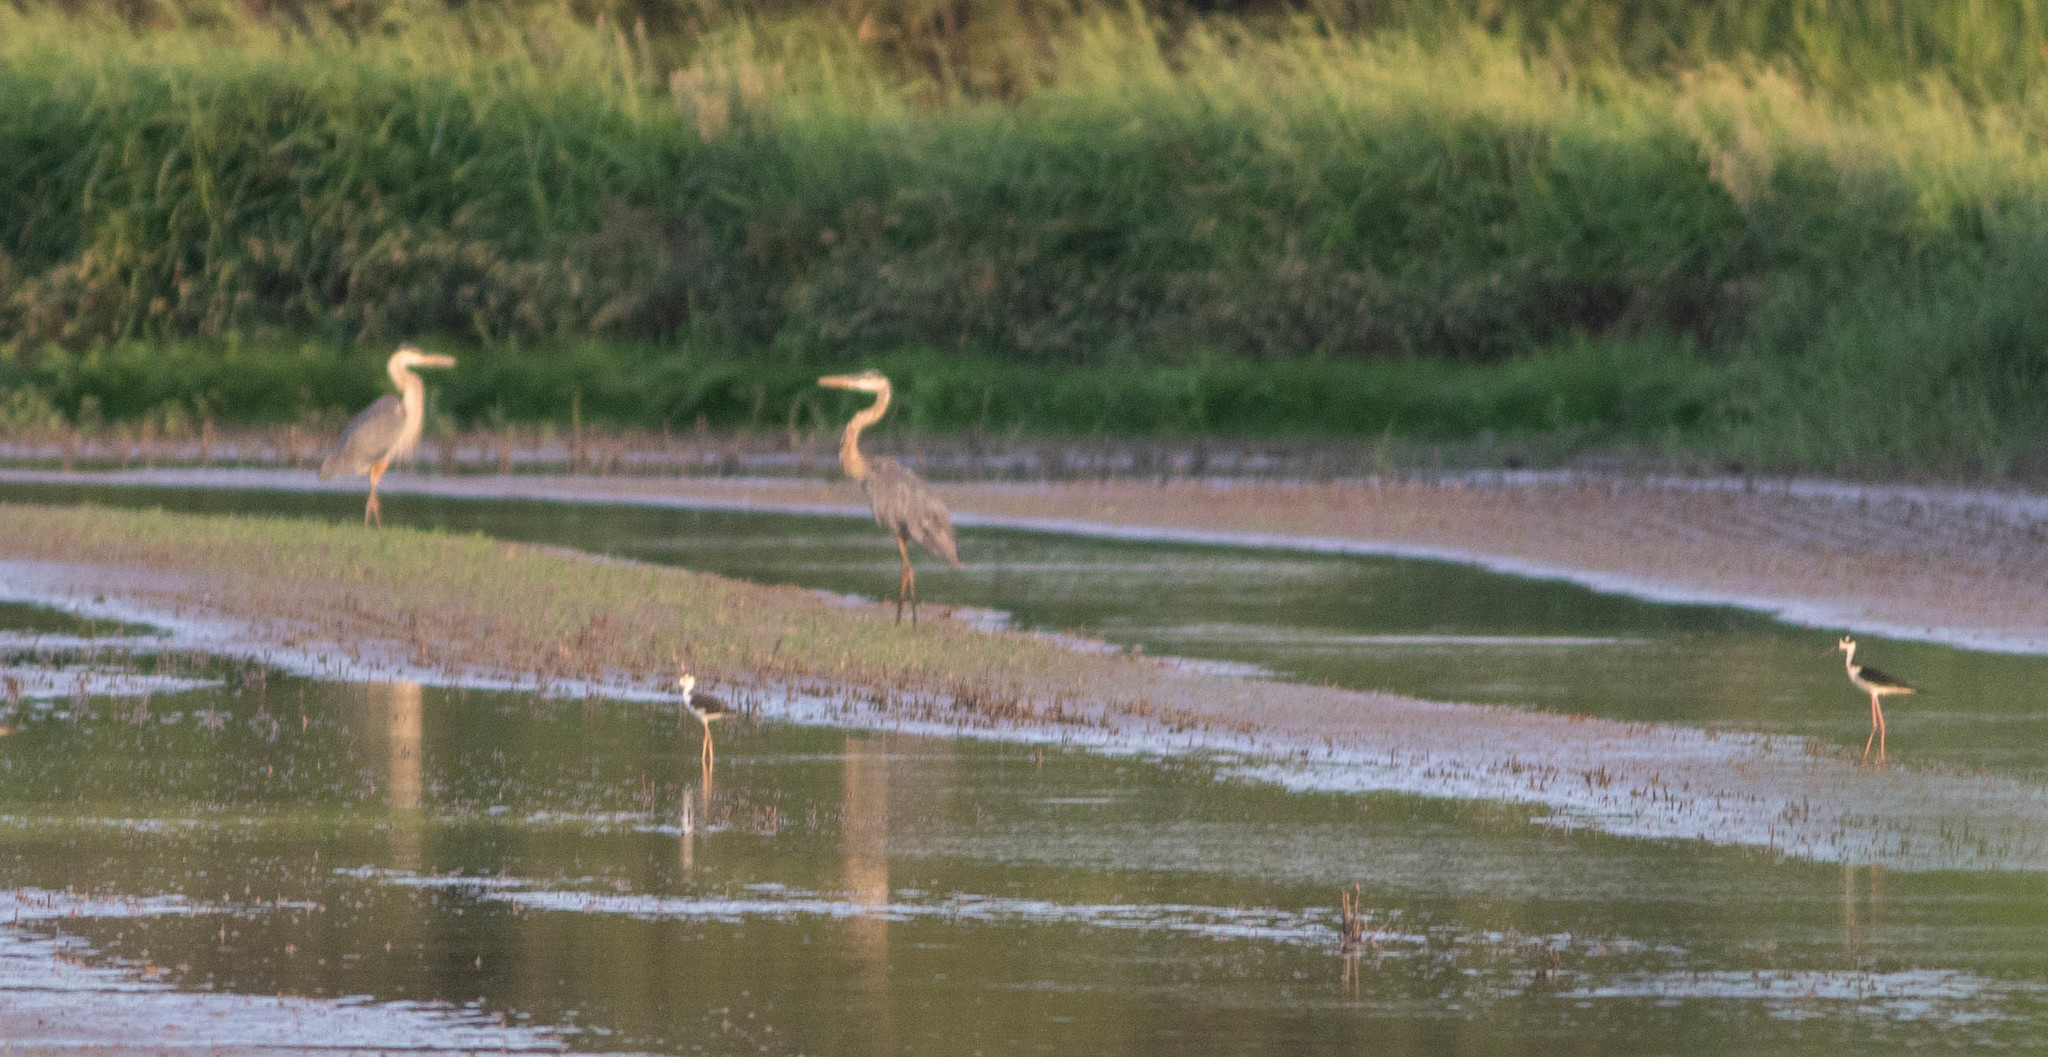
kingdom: Animalia
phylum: Chordata
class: Aves
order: Pelecaniformes
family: Ardeidae
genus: Ardea
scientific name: Ardea herodias
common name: Great blue heron
